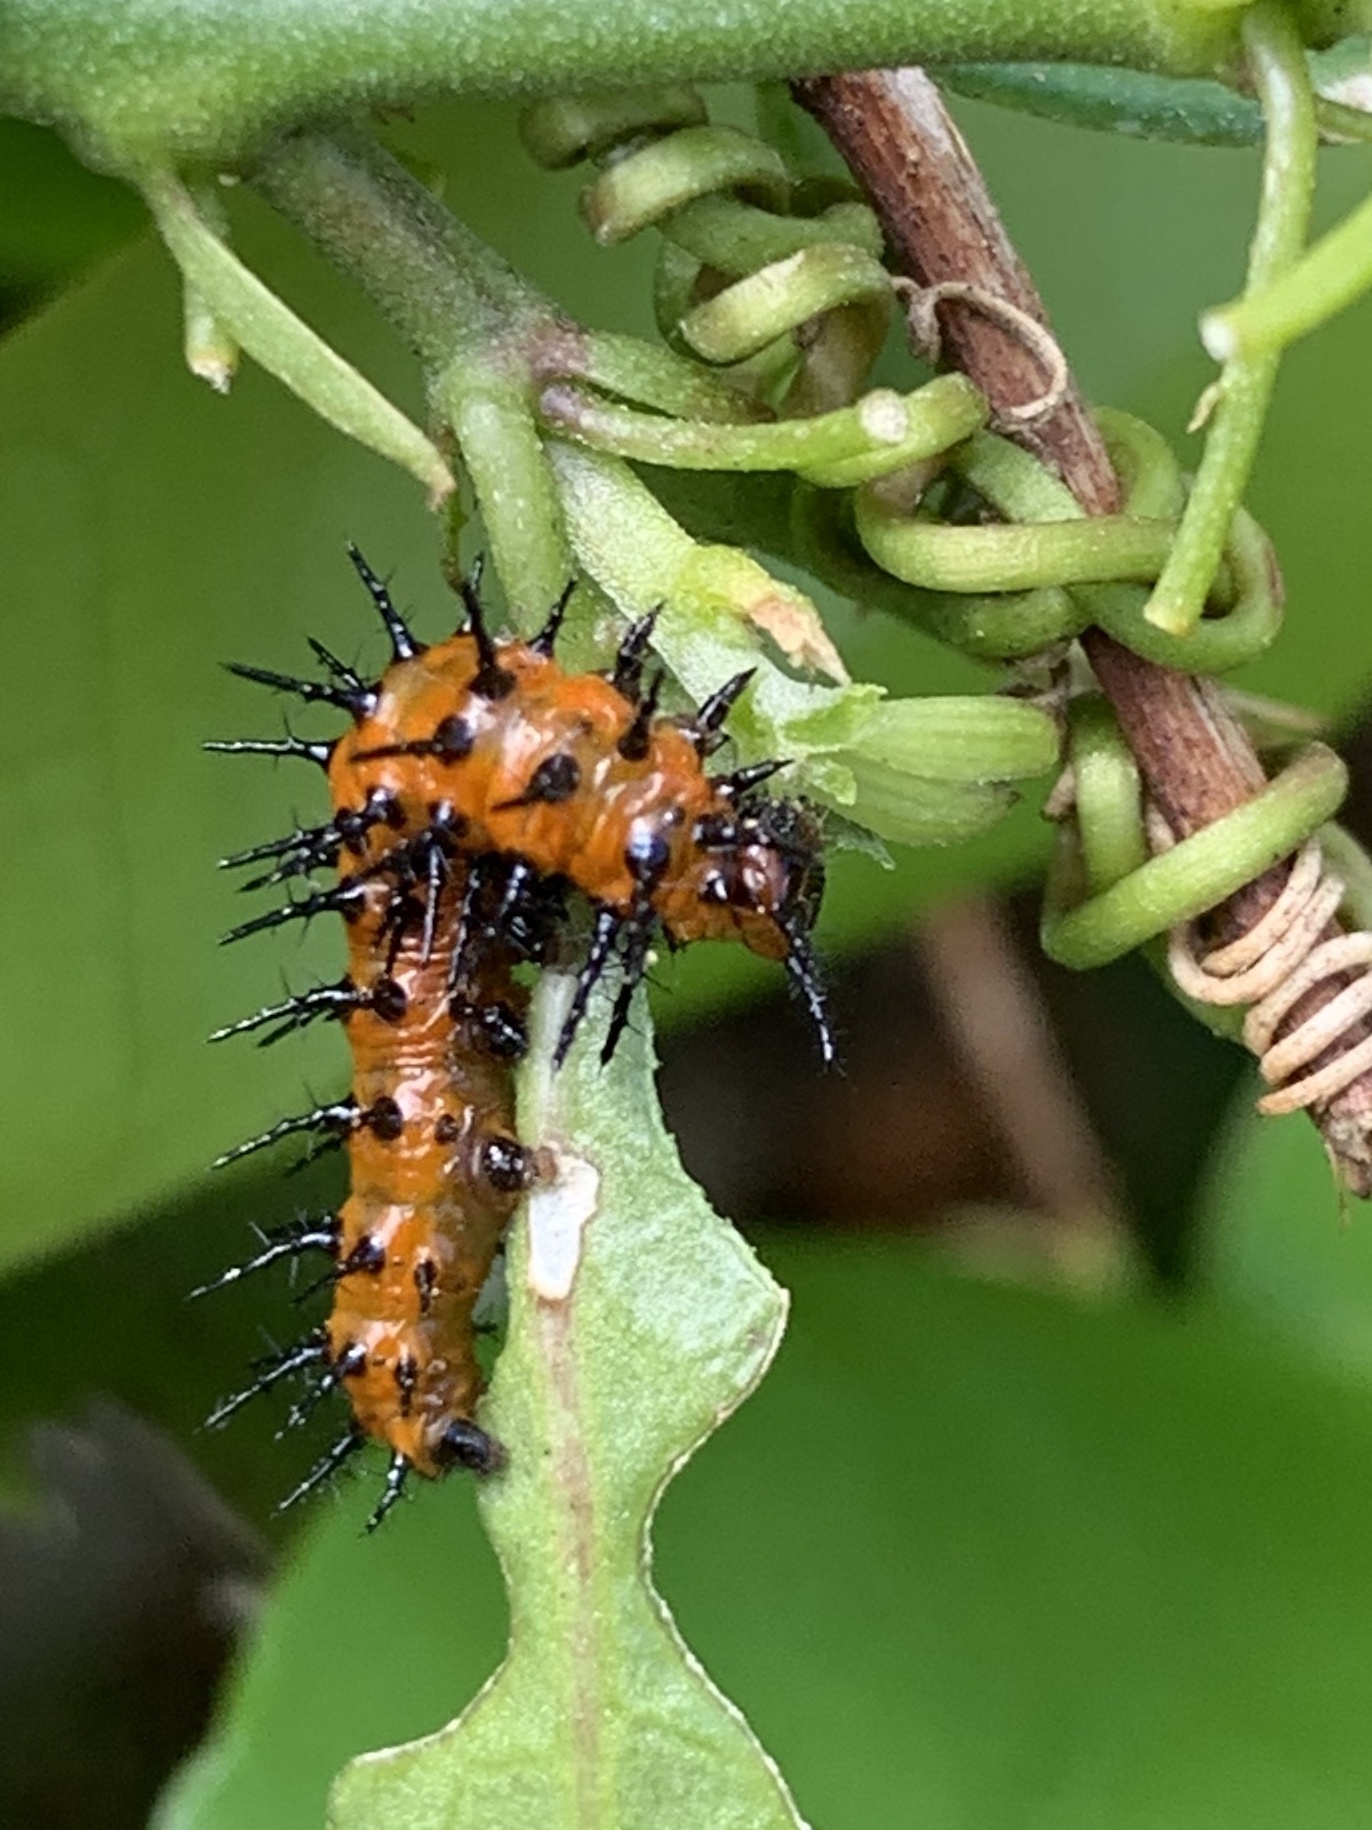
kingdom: Animalia
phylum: Arthropoda
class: Insecta
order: Lepidoptera
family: Nymphalidae
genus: Dione
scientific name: Dione vanillae
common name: Gulf fritillary
